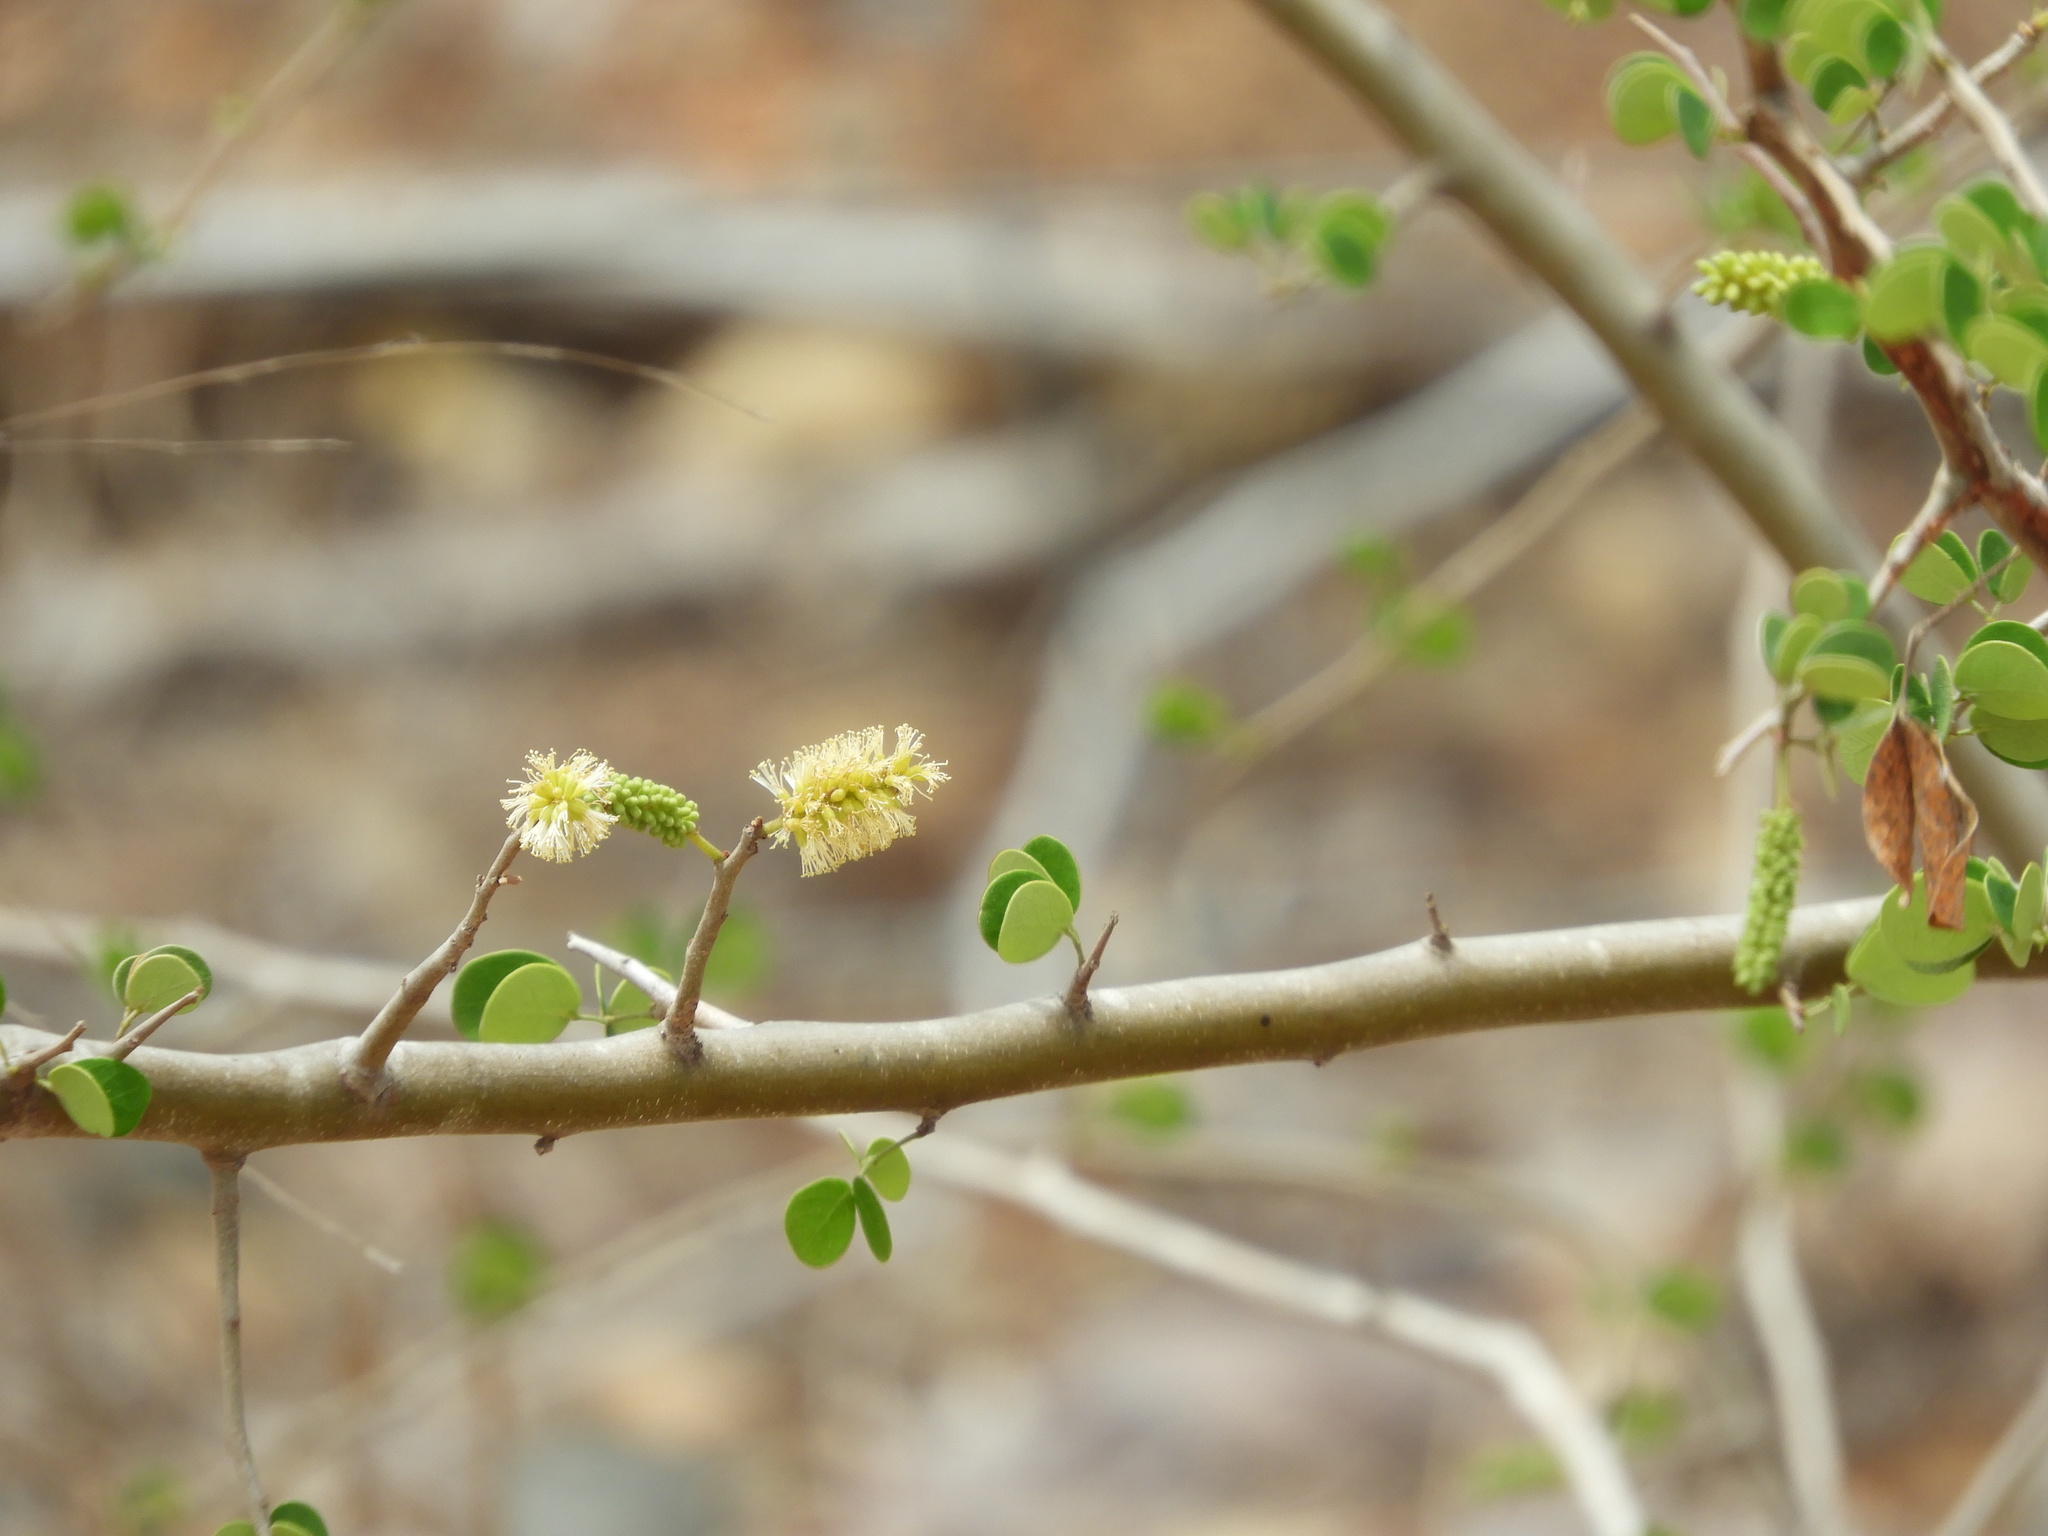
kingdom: Plantae
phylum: Tracheophyta
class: Magnoliopsida
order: Fabales
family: Fabaceae
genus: Microlobius
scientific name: Microlobius foetidus
